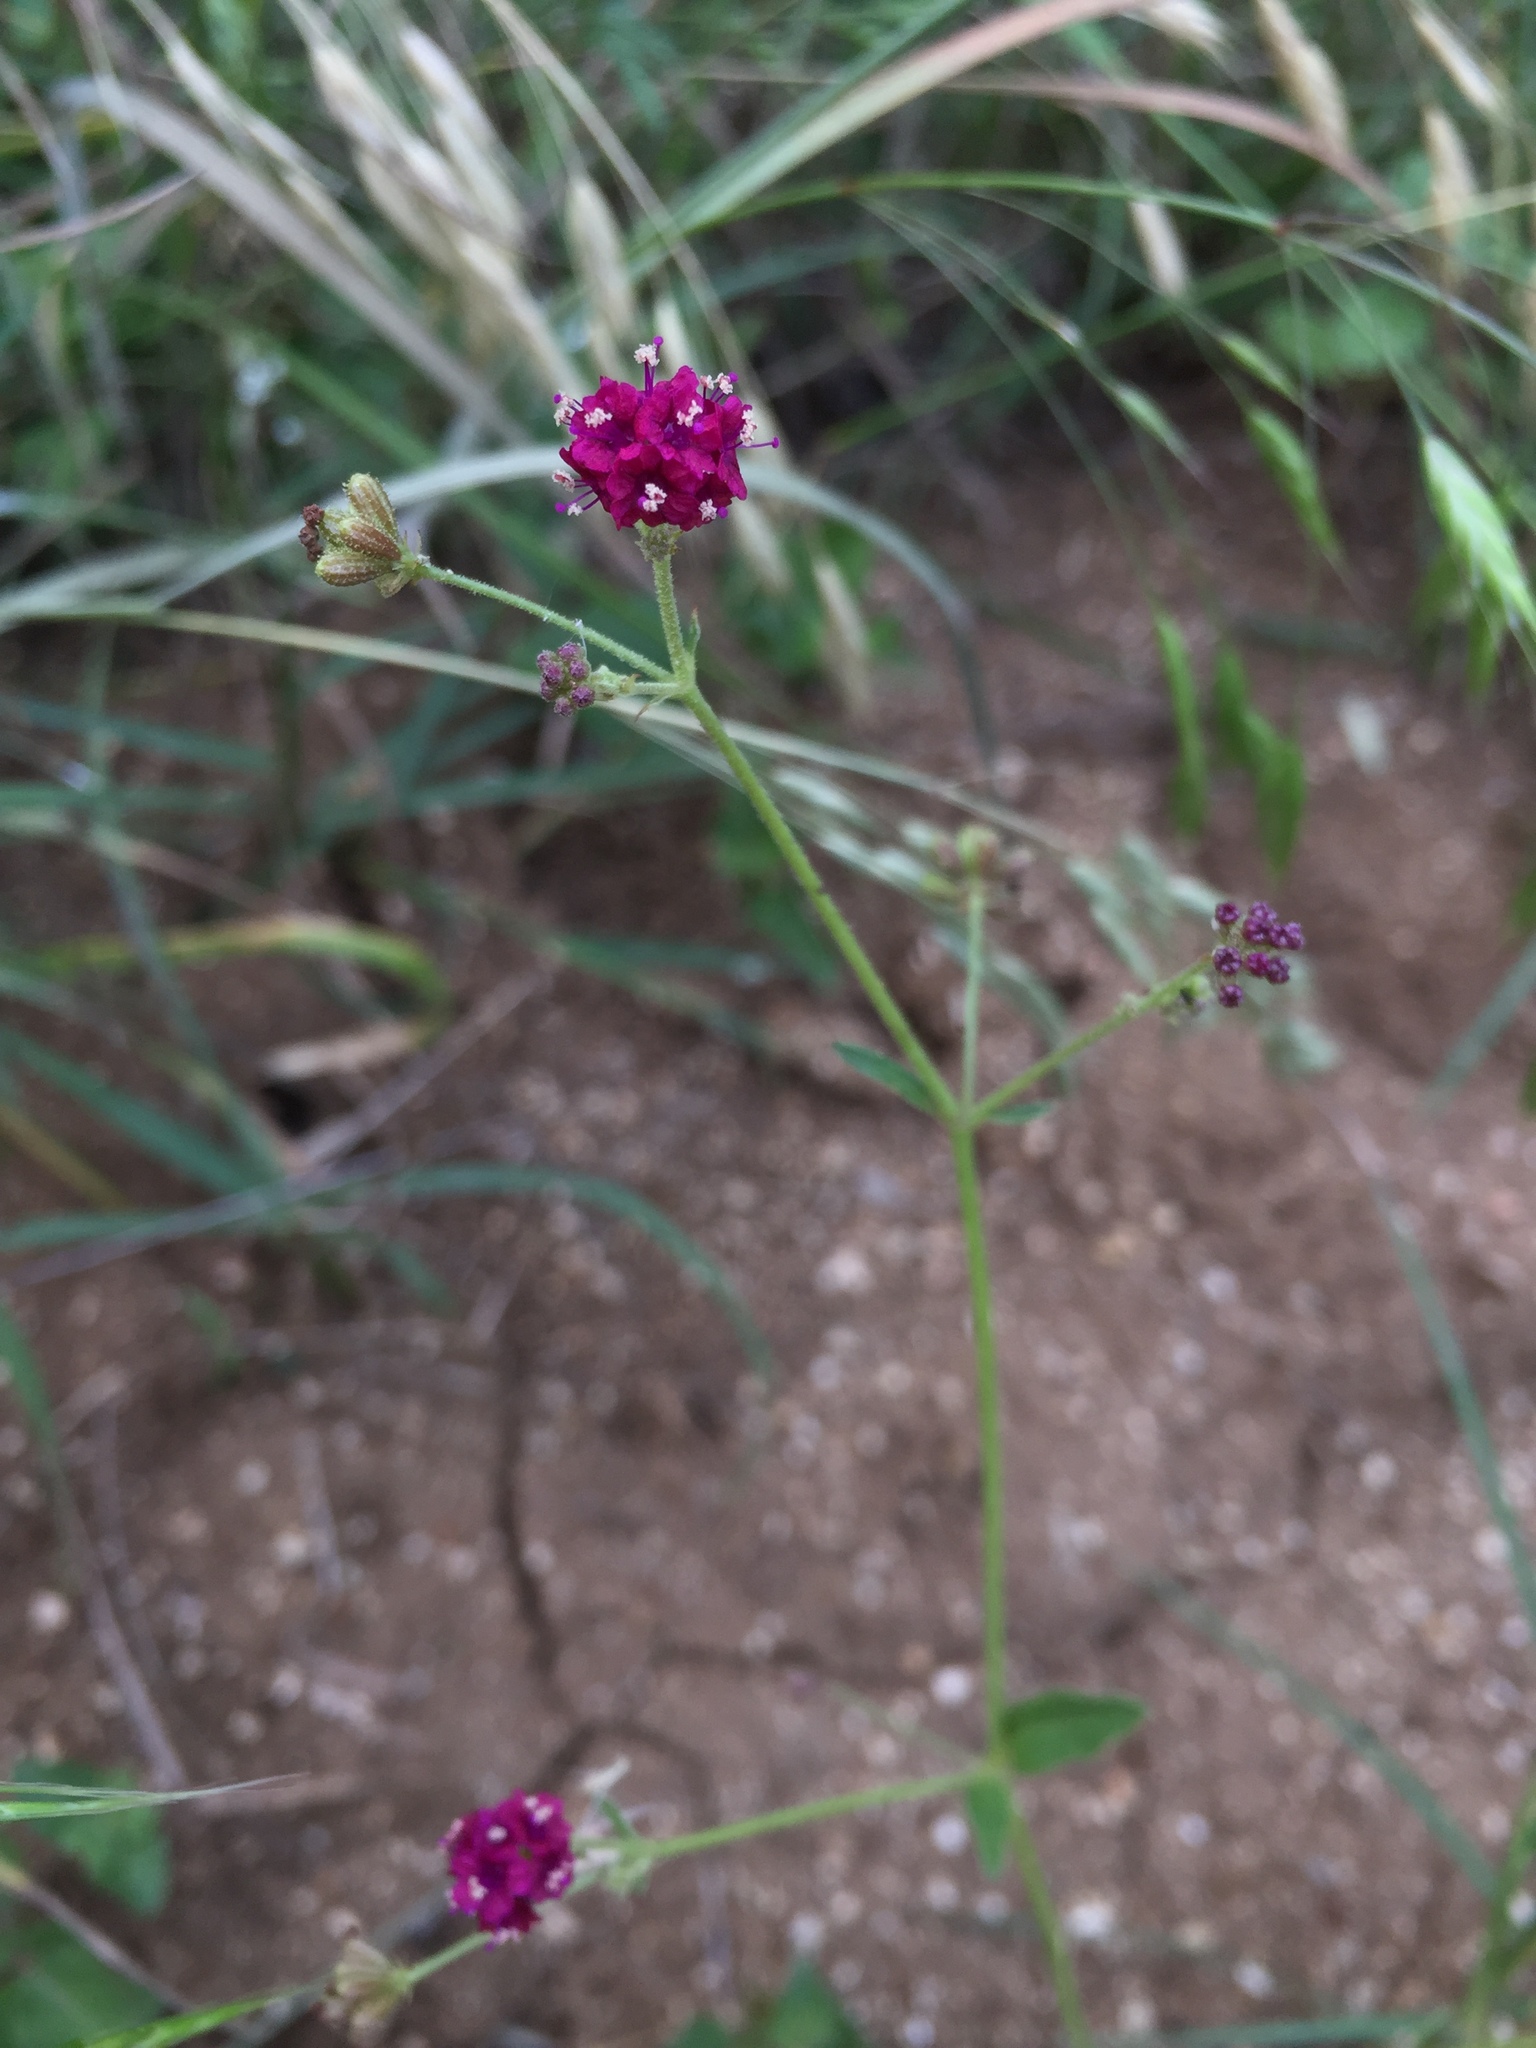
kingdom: Plantae
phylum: Tracheophyta
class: Magnoliopsida
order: Caryophyllales
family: Nyctaginaceae
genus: Boerhavia
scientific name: Boerhavia coccinea
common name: Scarlet spiderling
